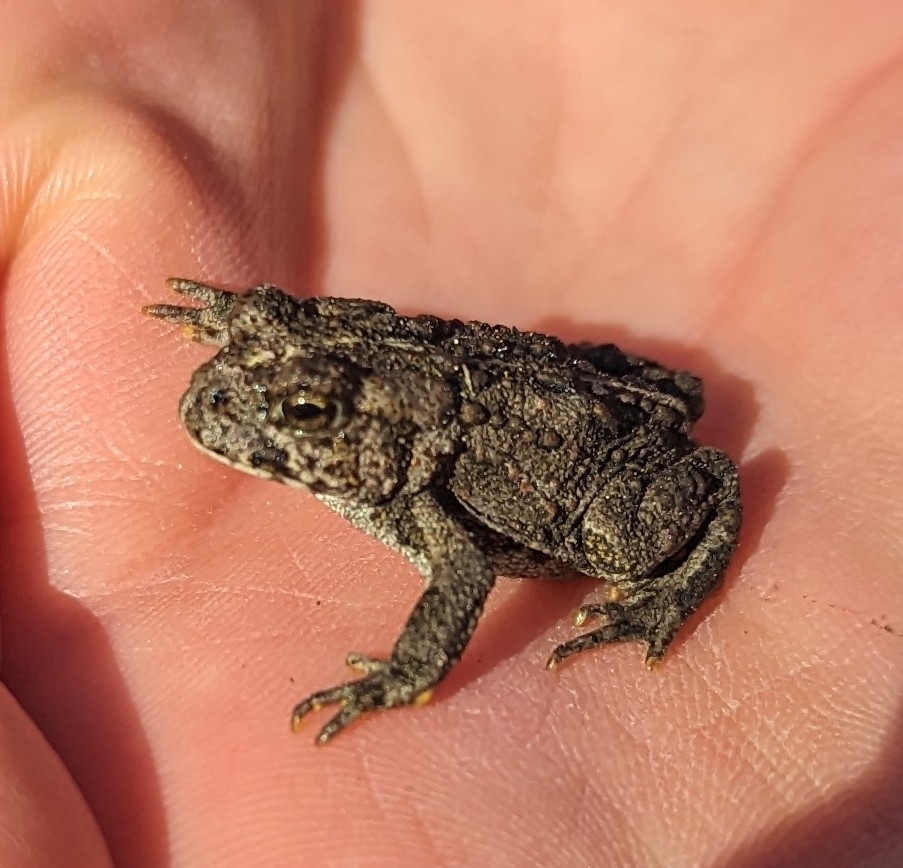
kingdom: Animalia
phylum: Chordata
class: Amphibia
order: Anura
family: Bufonidae
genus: Anaxyrus
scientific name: Anaxyrus boreas
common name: Western toad
